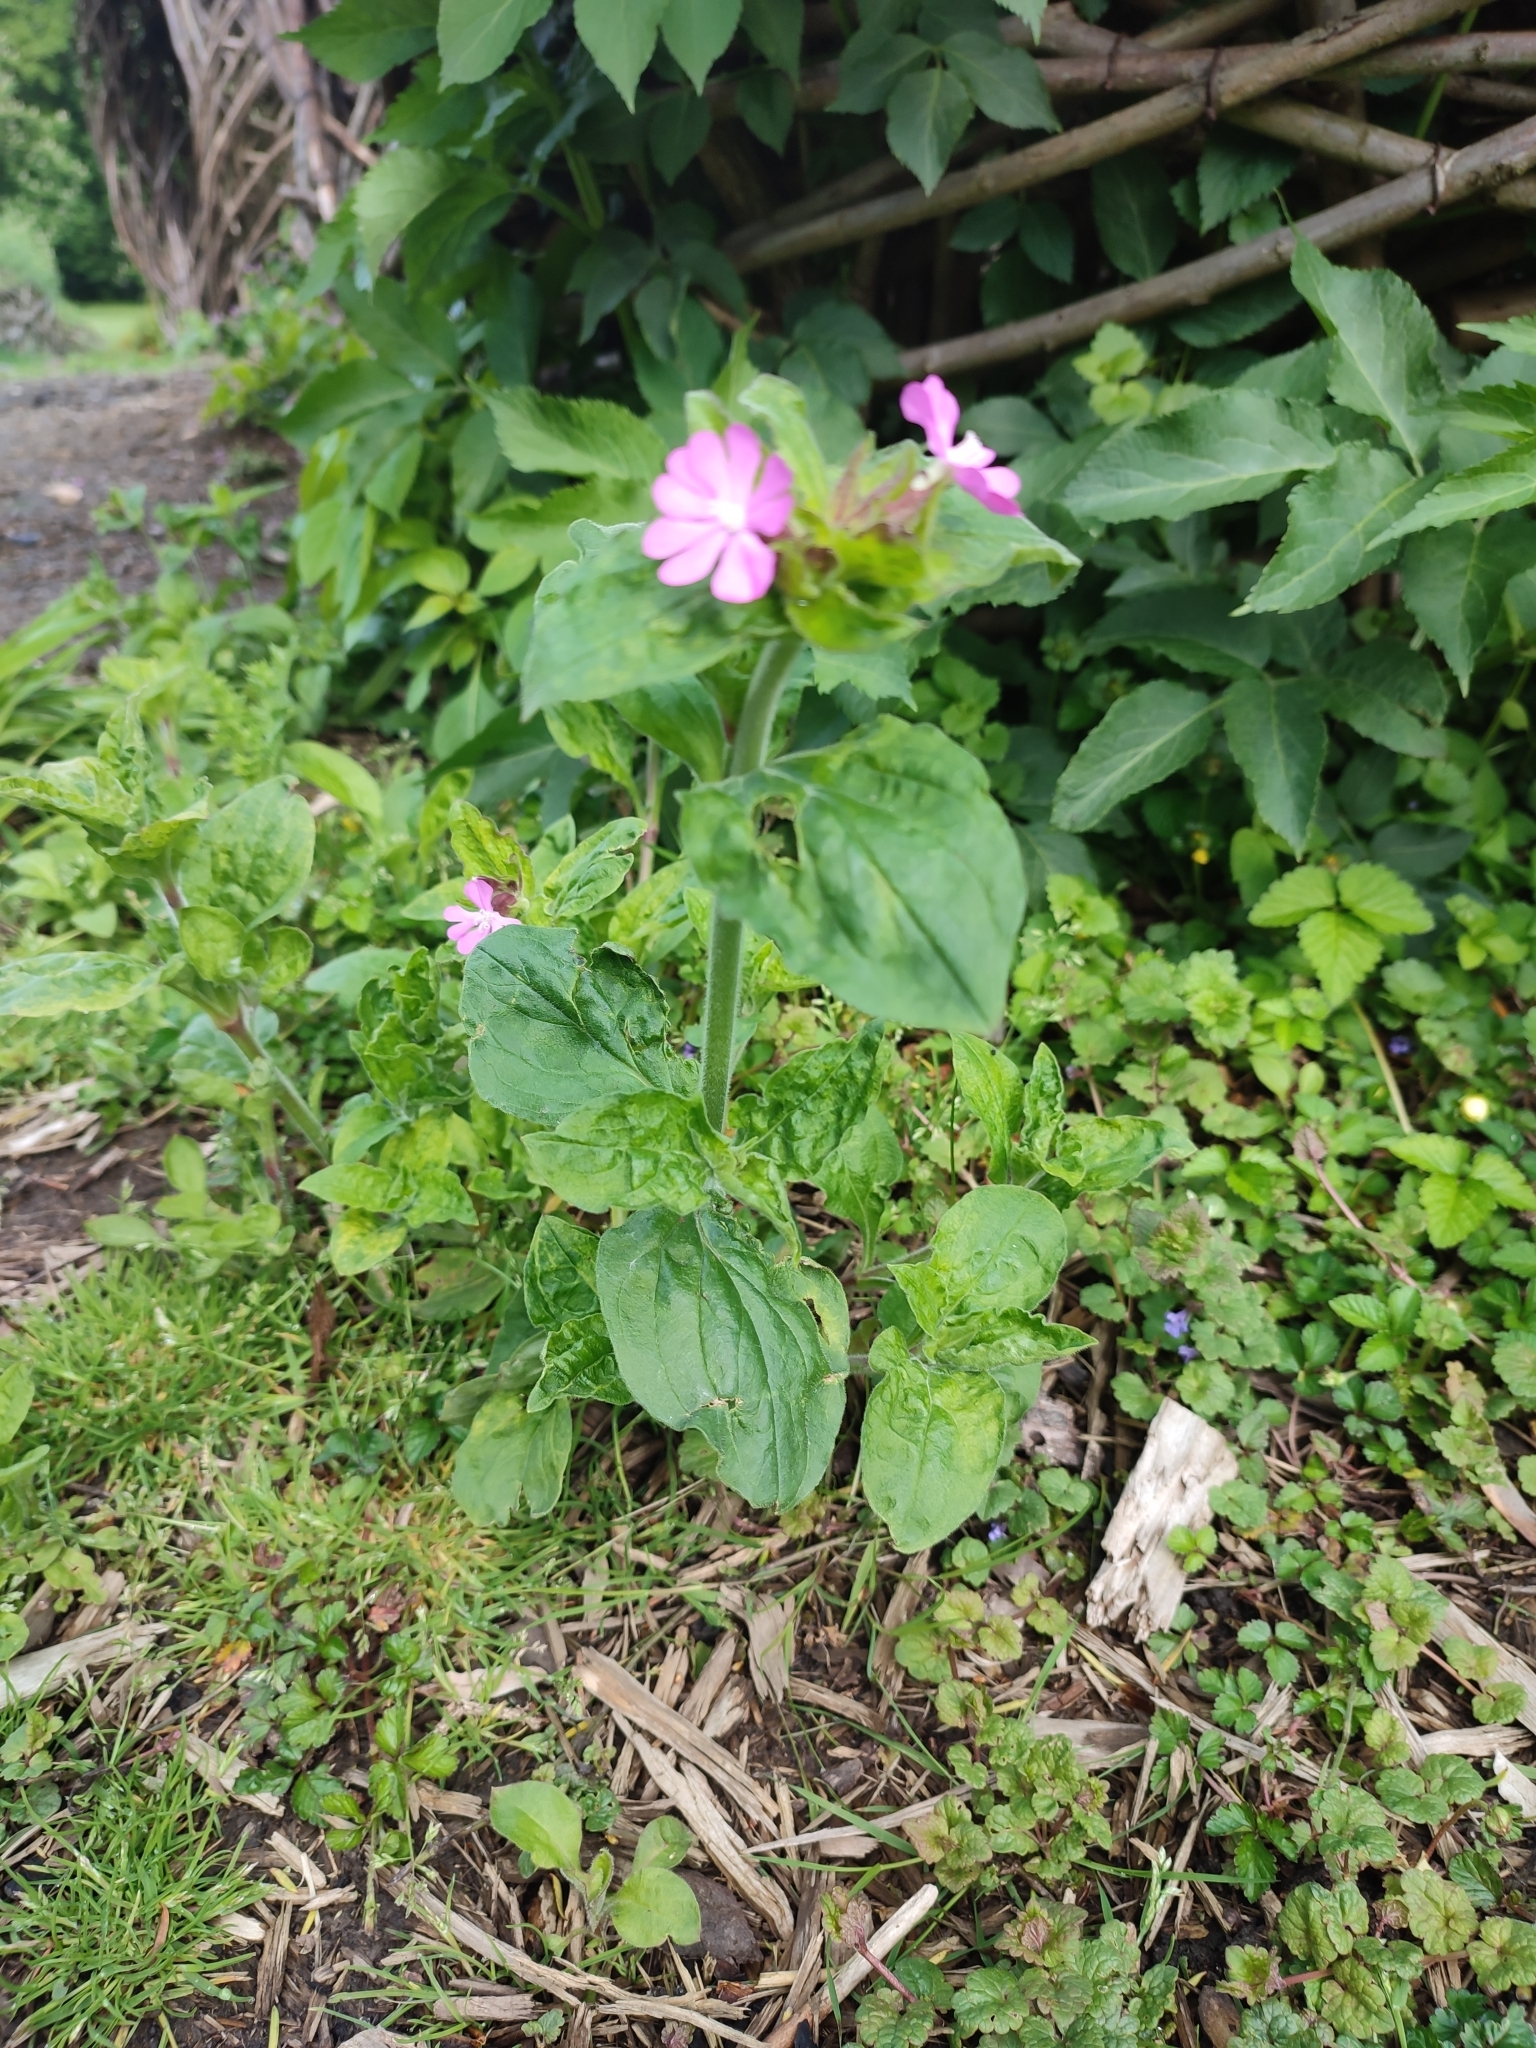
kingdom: Plantae
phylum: Tracheophyta
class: Magnoliopsida
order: Caryophyllales
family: Caryophyllaceae
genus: Silene
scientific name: Silene dioica
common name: Red campion
